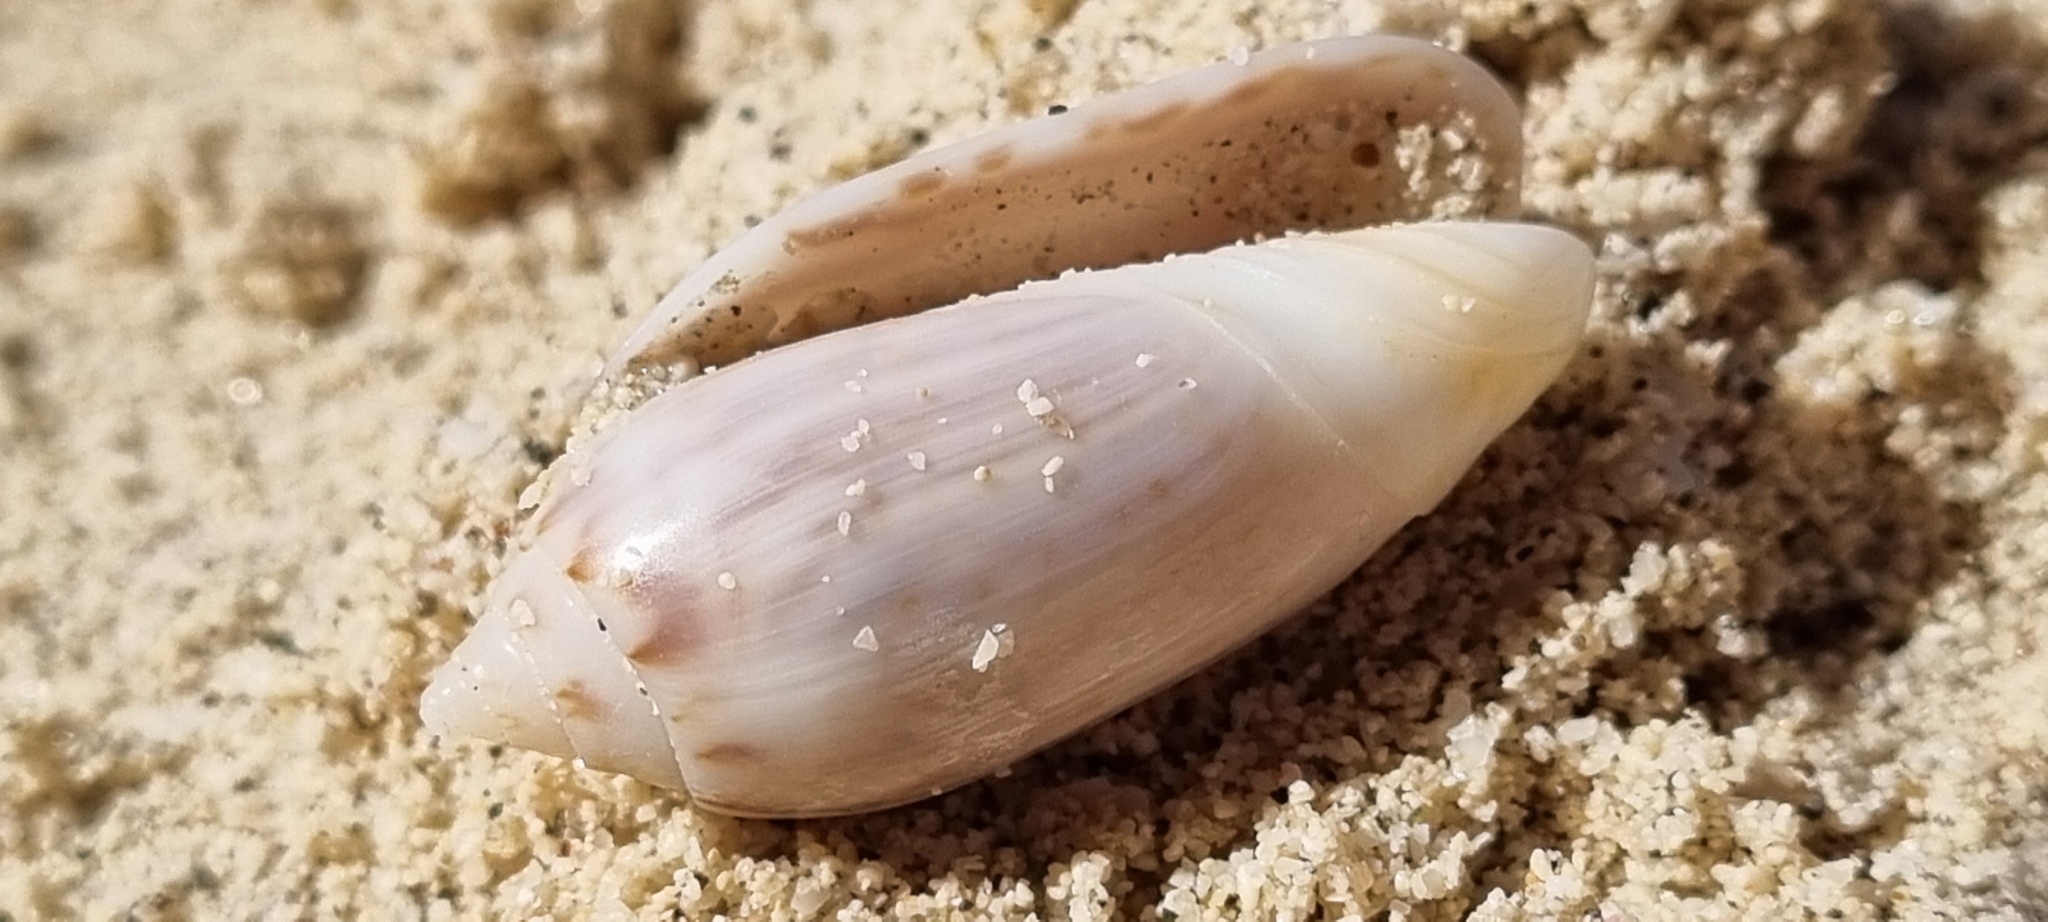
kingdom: Animalia
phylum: Mollusca
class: Gastropoda
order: Neogastropoda
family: Olividae
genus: Oliva
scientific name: Oliva spicata
